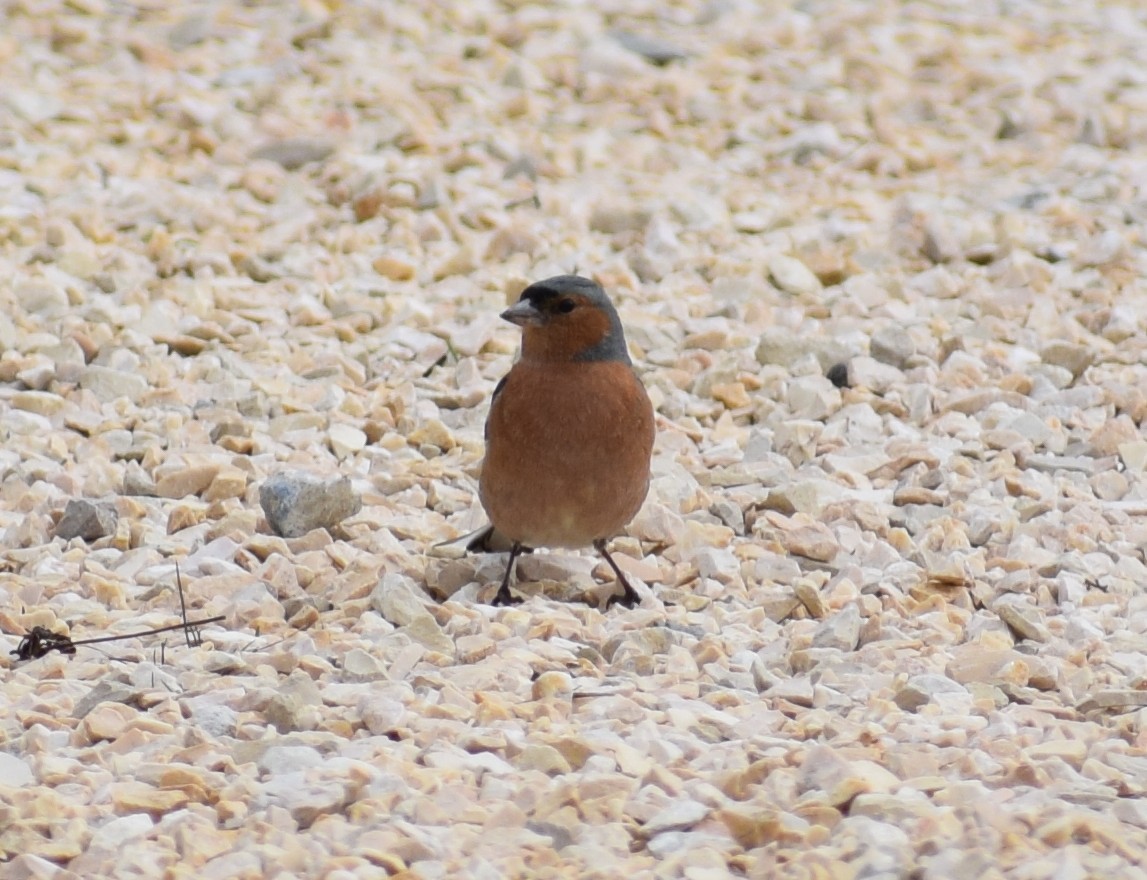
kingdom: Animalia
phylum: Chordata
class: Aves
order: Passeriformes
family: Fringillidae
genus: Fringilla
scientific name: Fringilla coelebs
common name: Common chaffinch
